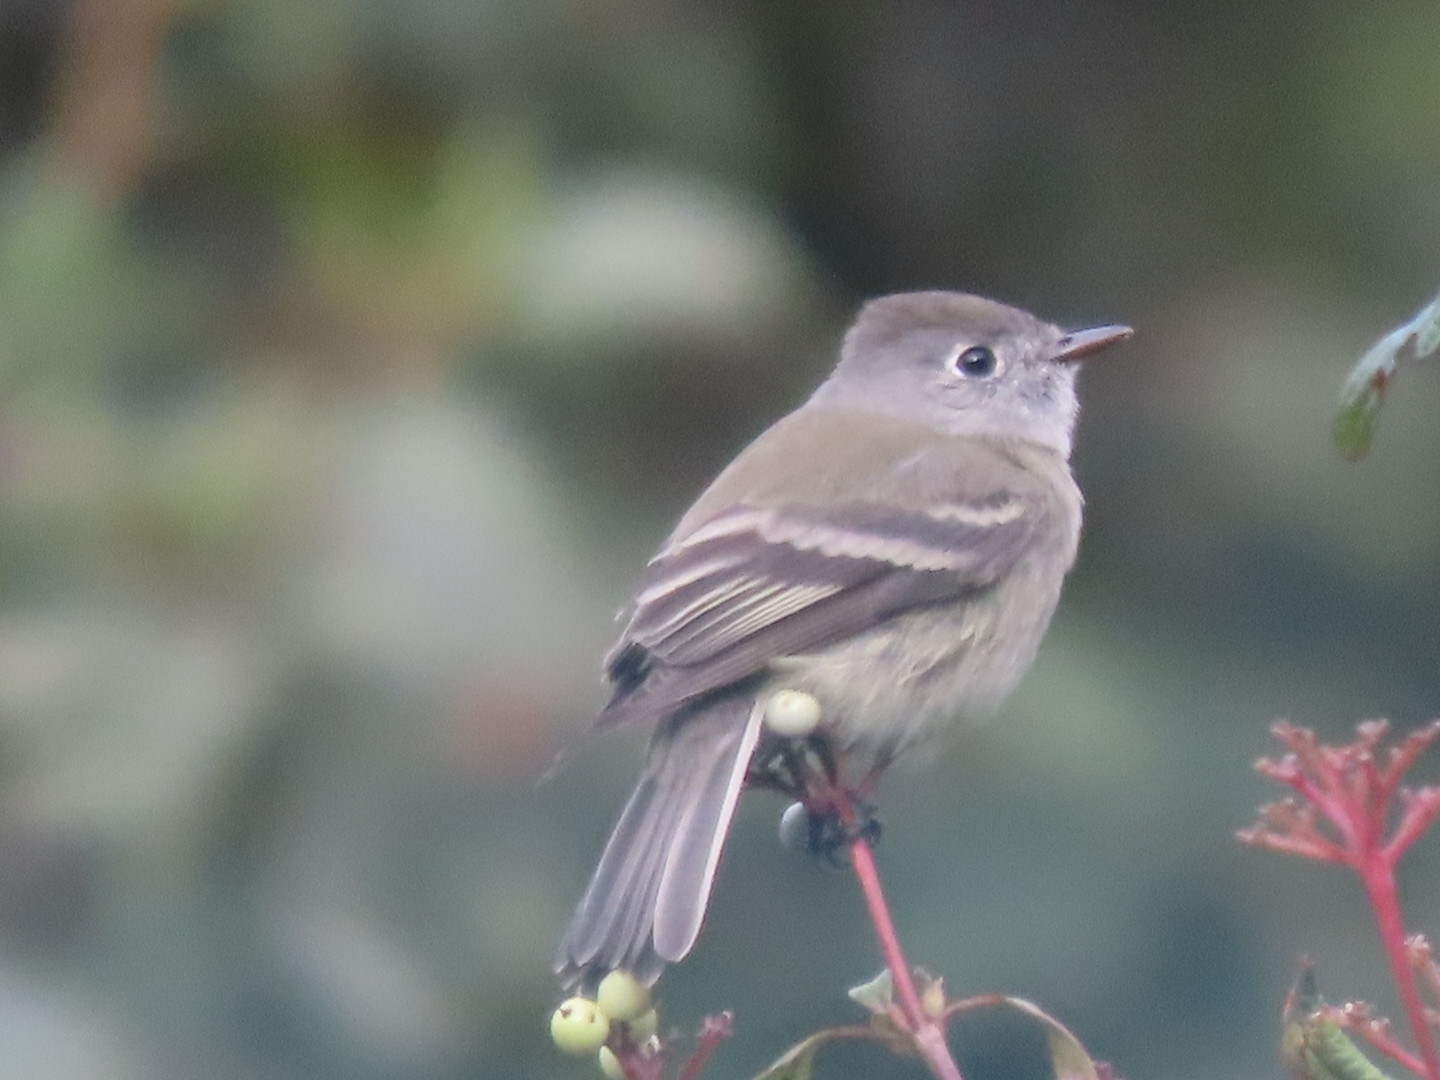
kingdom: Animalia
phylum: Chordata
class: Aves
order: Passeriformes
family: Tyrannidae
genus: Empidonax
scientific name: Empidonax hammondii
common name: Hammond's flycatcher
